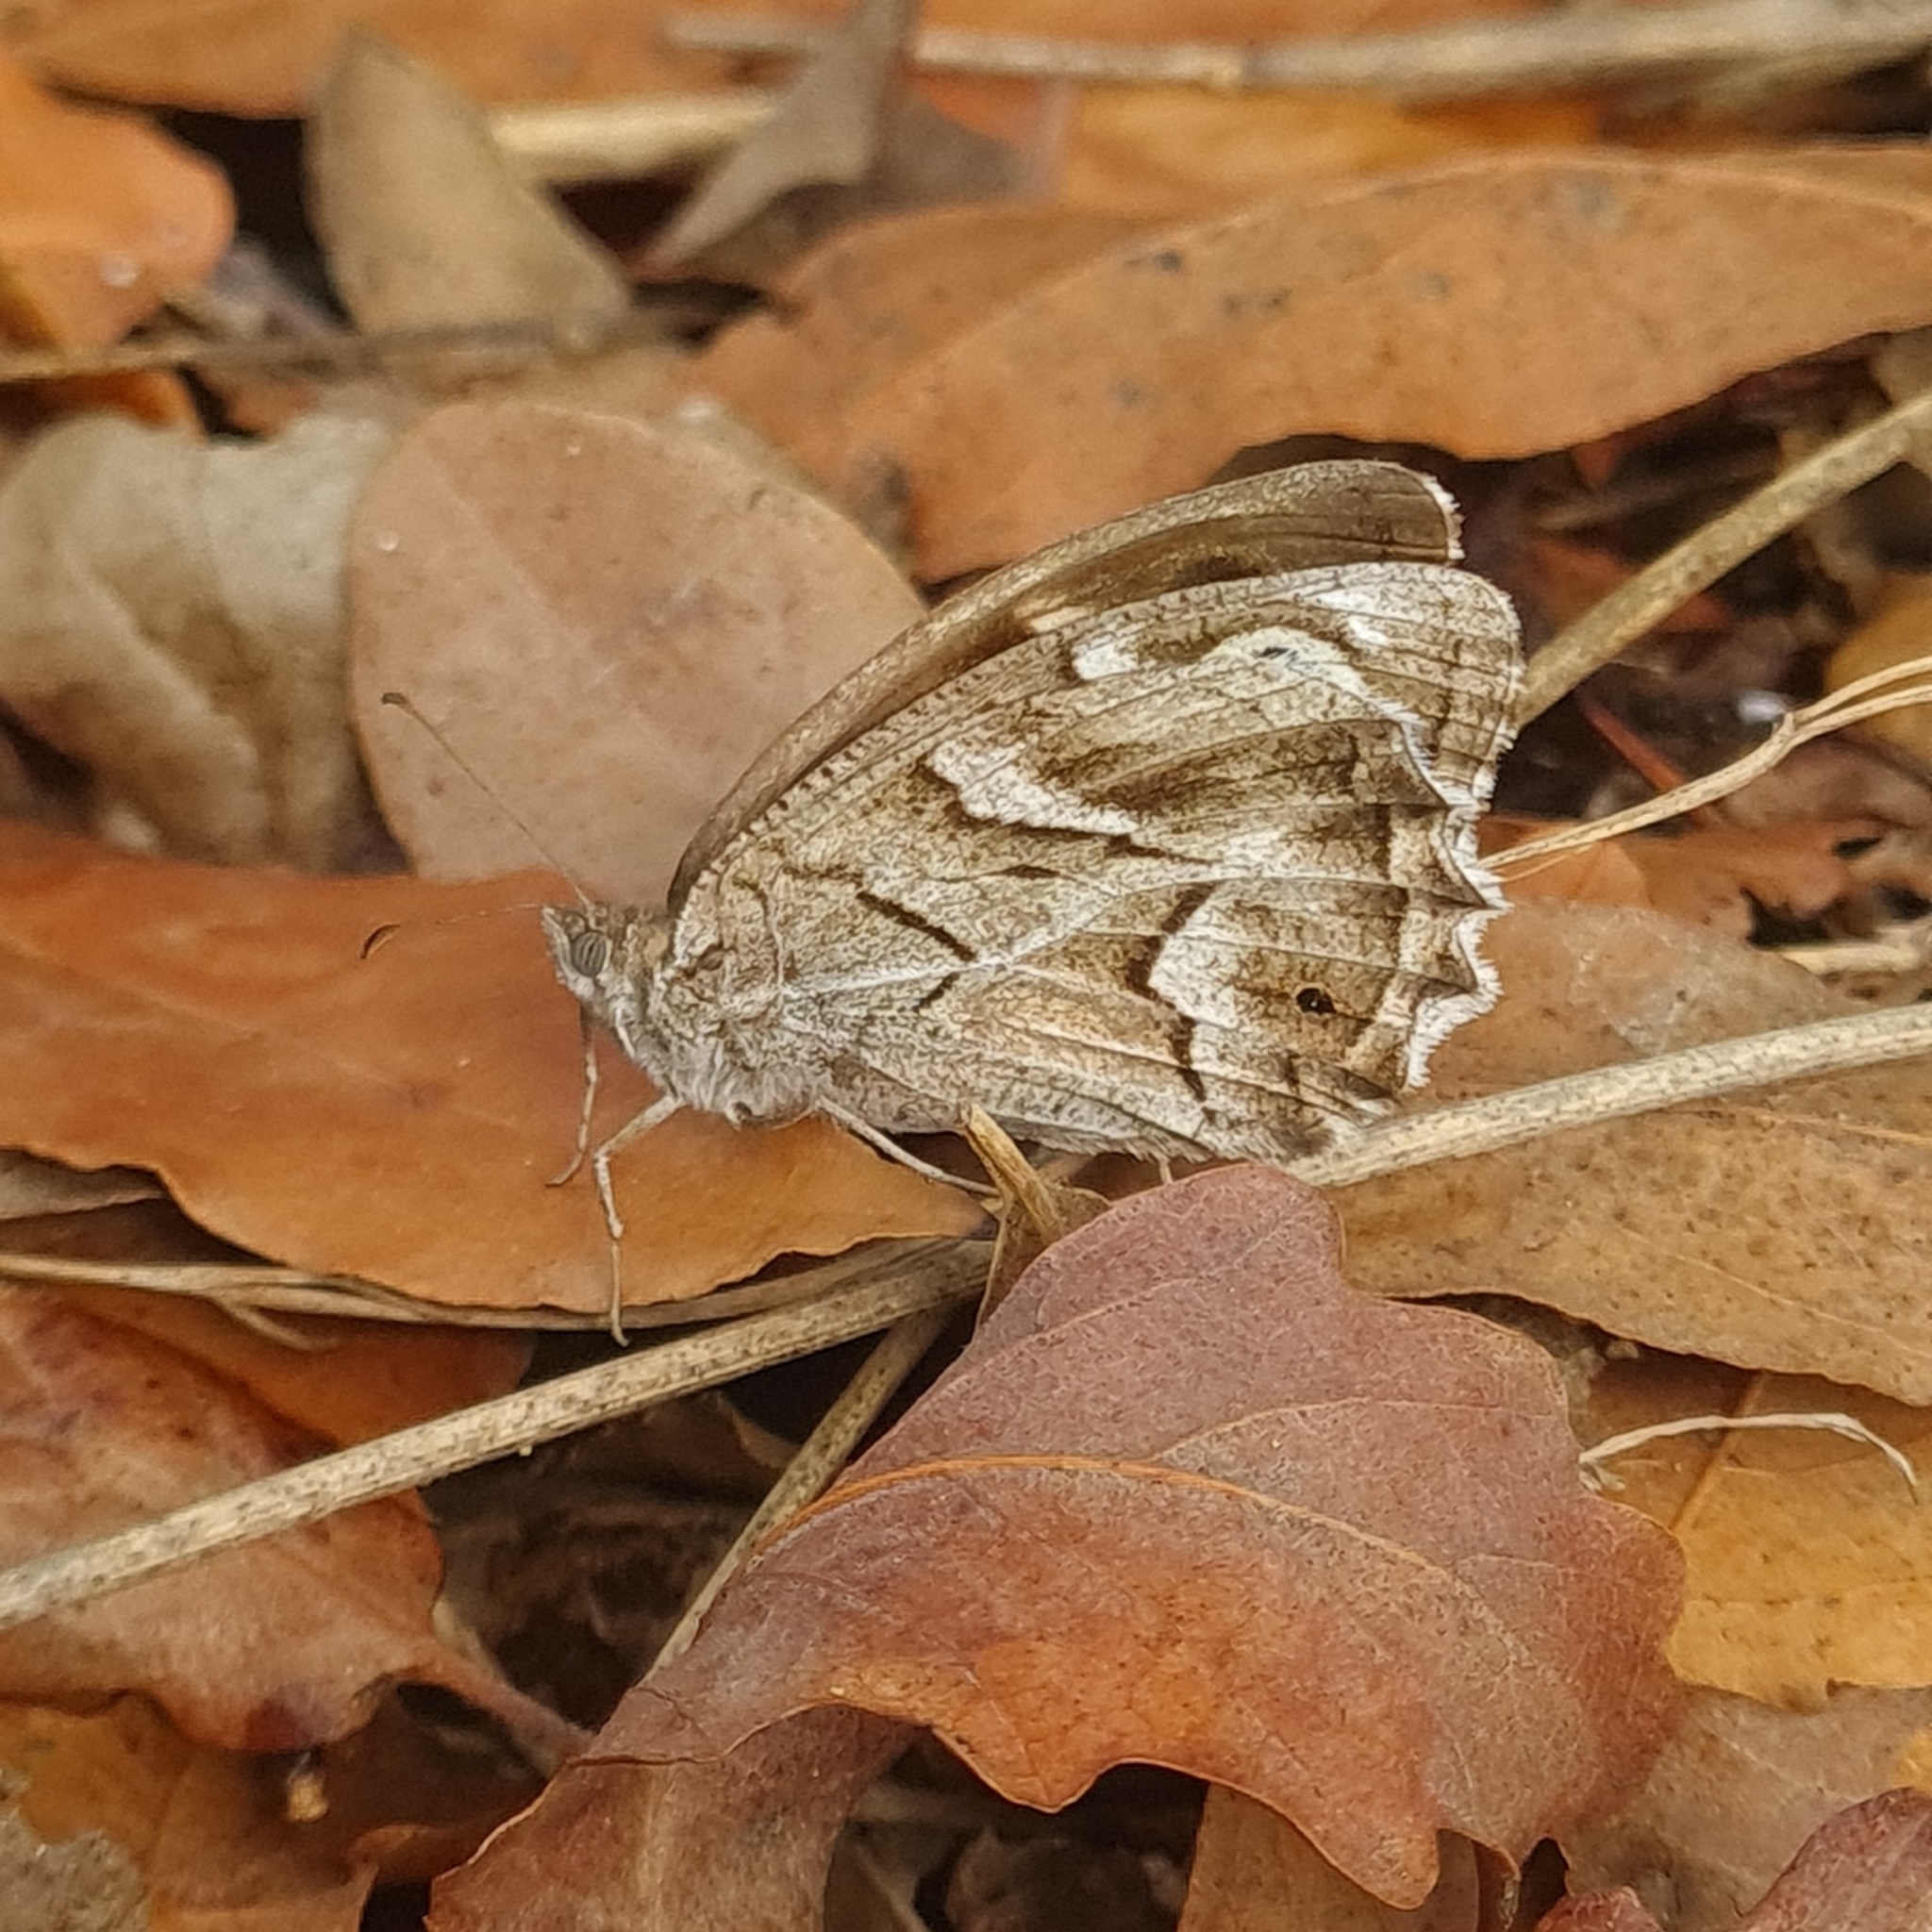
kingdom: Animalia
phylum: Arthropoda
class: Insecta
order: Lepidoptera
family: Nymphalidae
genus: Hipparchia
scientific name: Hipparchia fidia
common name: Striped grayling
